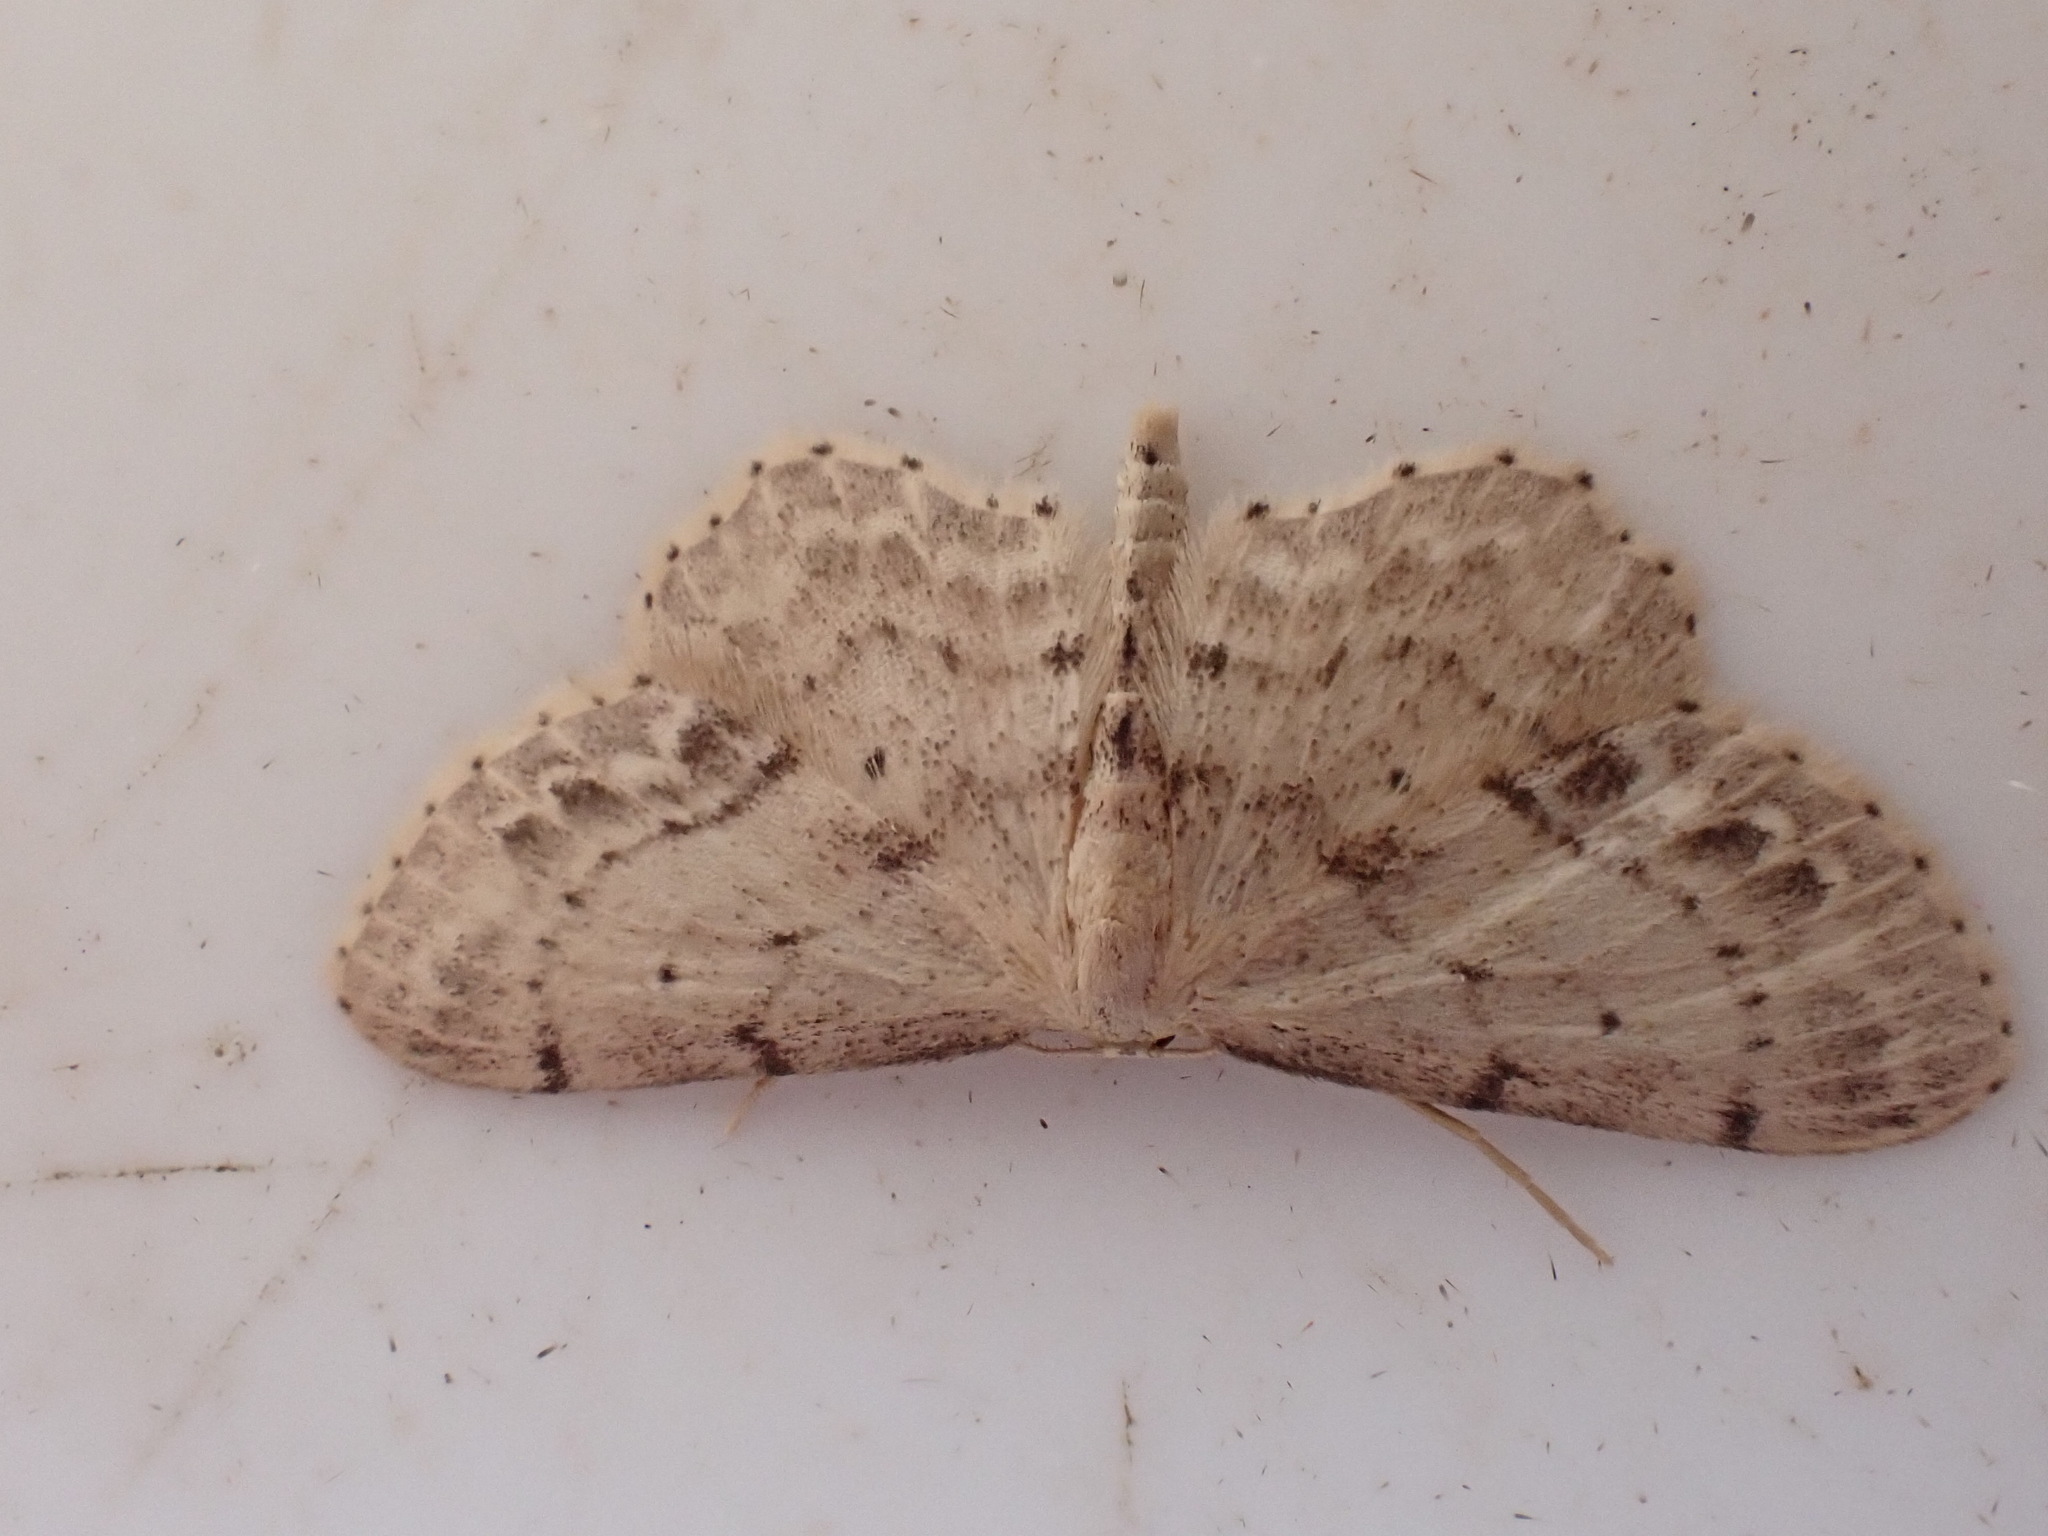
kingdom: Animalia
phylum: Arthropoda
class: Insecta
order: Lepidoptera
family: Geometridae
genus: Idaea
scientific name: Idaea dimidiata
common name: Single-dotted wave
